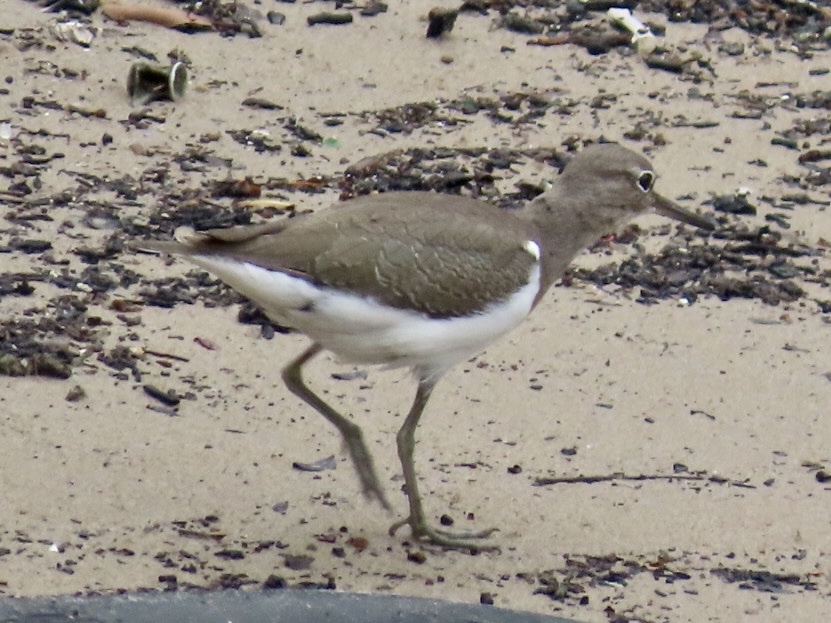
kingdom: Animalia
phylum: Chordata
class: Aves
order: Charadriiformes
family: Scolopacidae
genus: Actitis
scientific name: Actitis hypoleucos
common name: Common sandpiper
